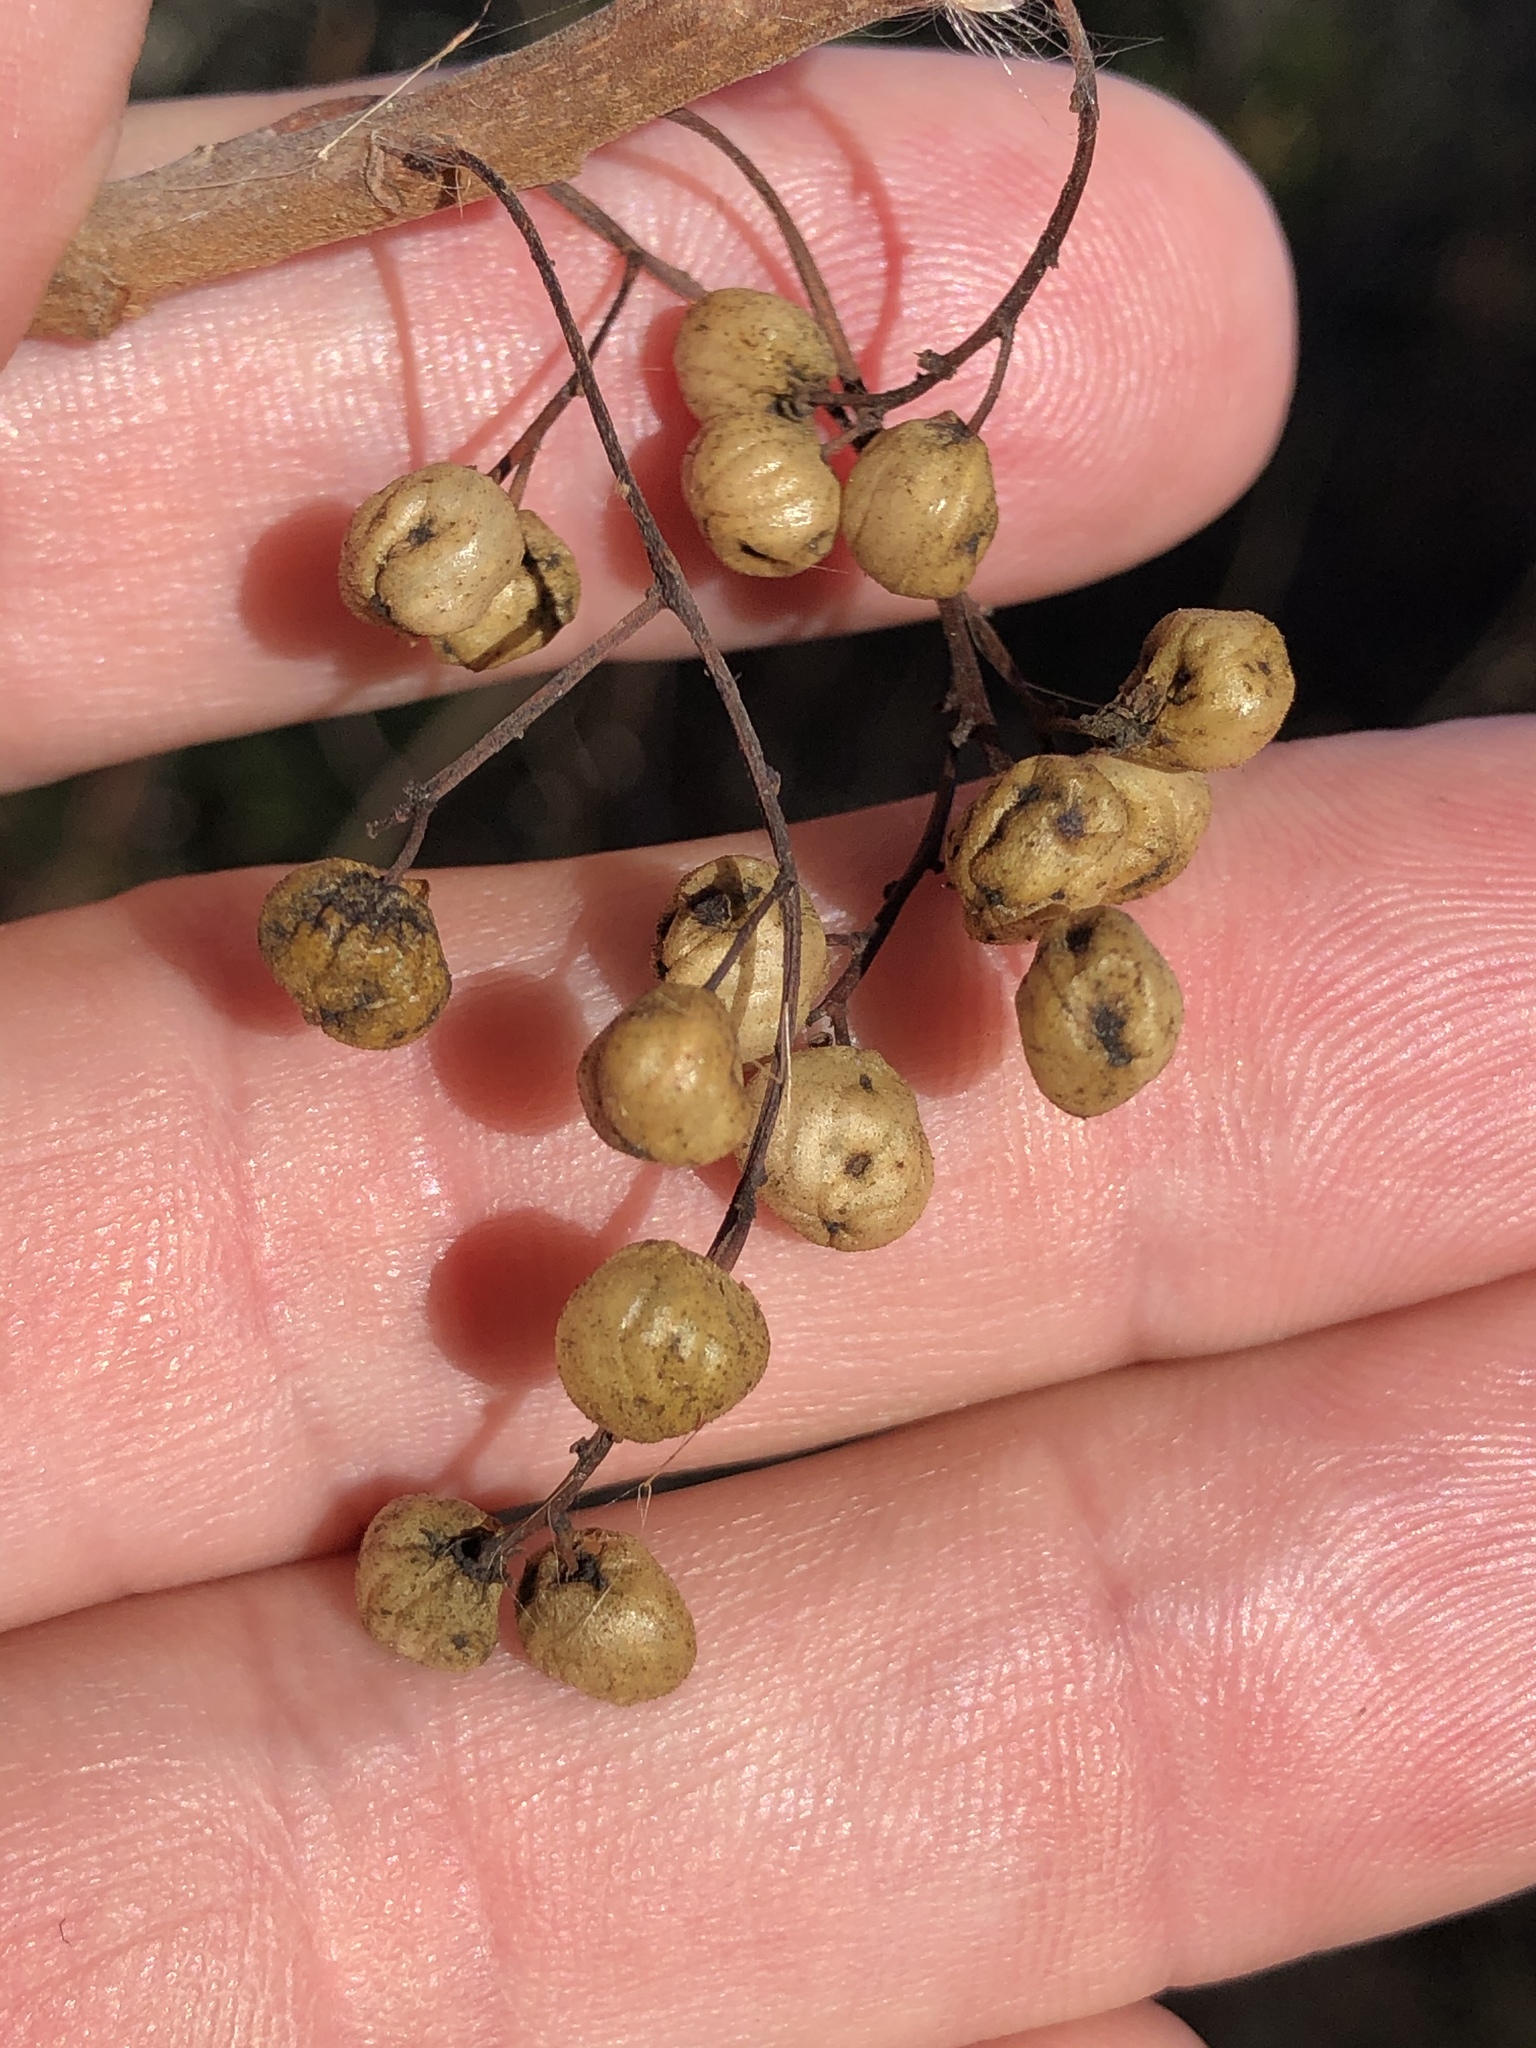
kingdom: Plantae
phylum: Tracheophyta
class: Magnoliopsida
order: Sapindales
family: Anacardiaceae
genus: Toxicodendron
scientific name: Toxicodendron diversilobum
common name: Pacific poison-oak
